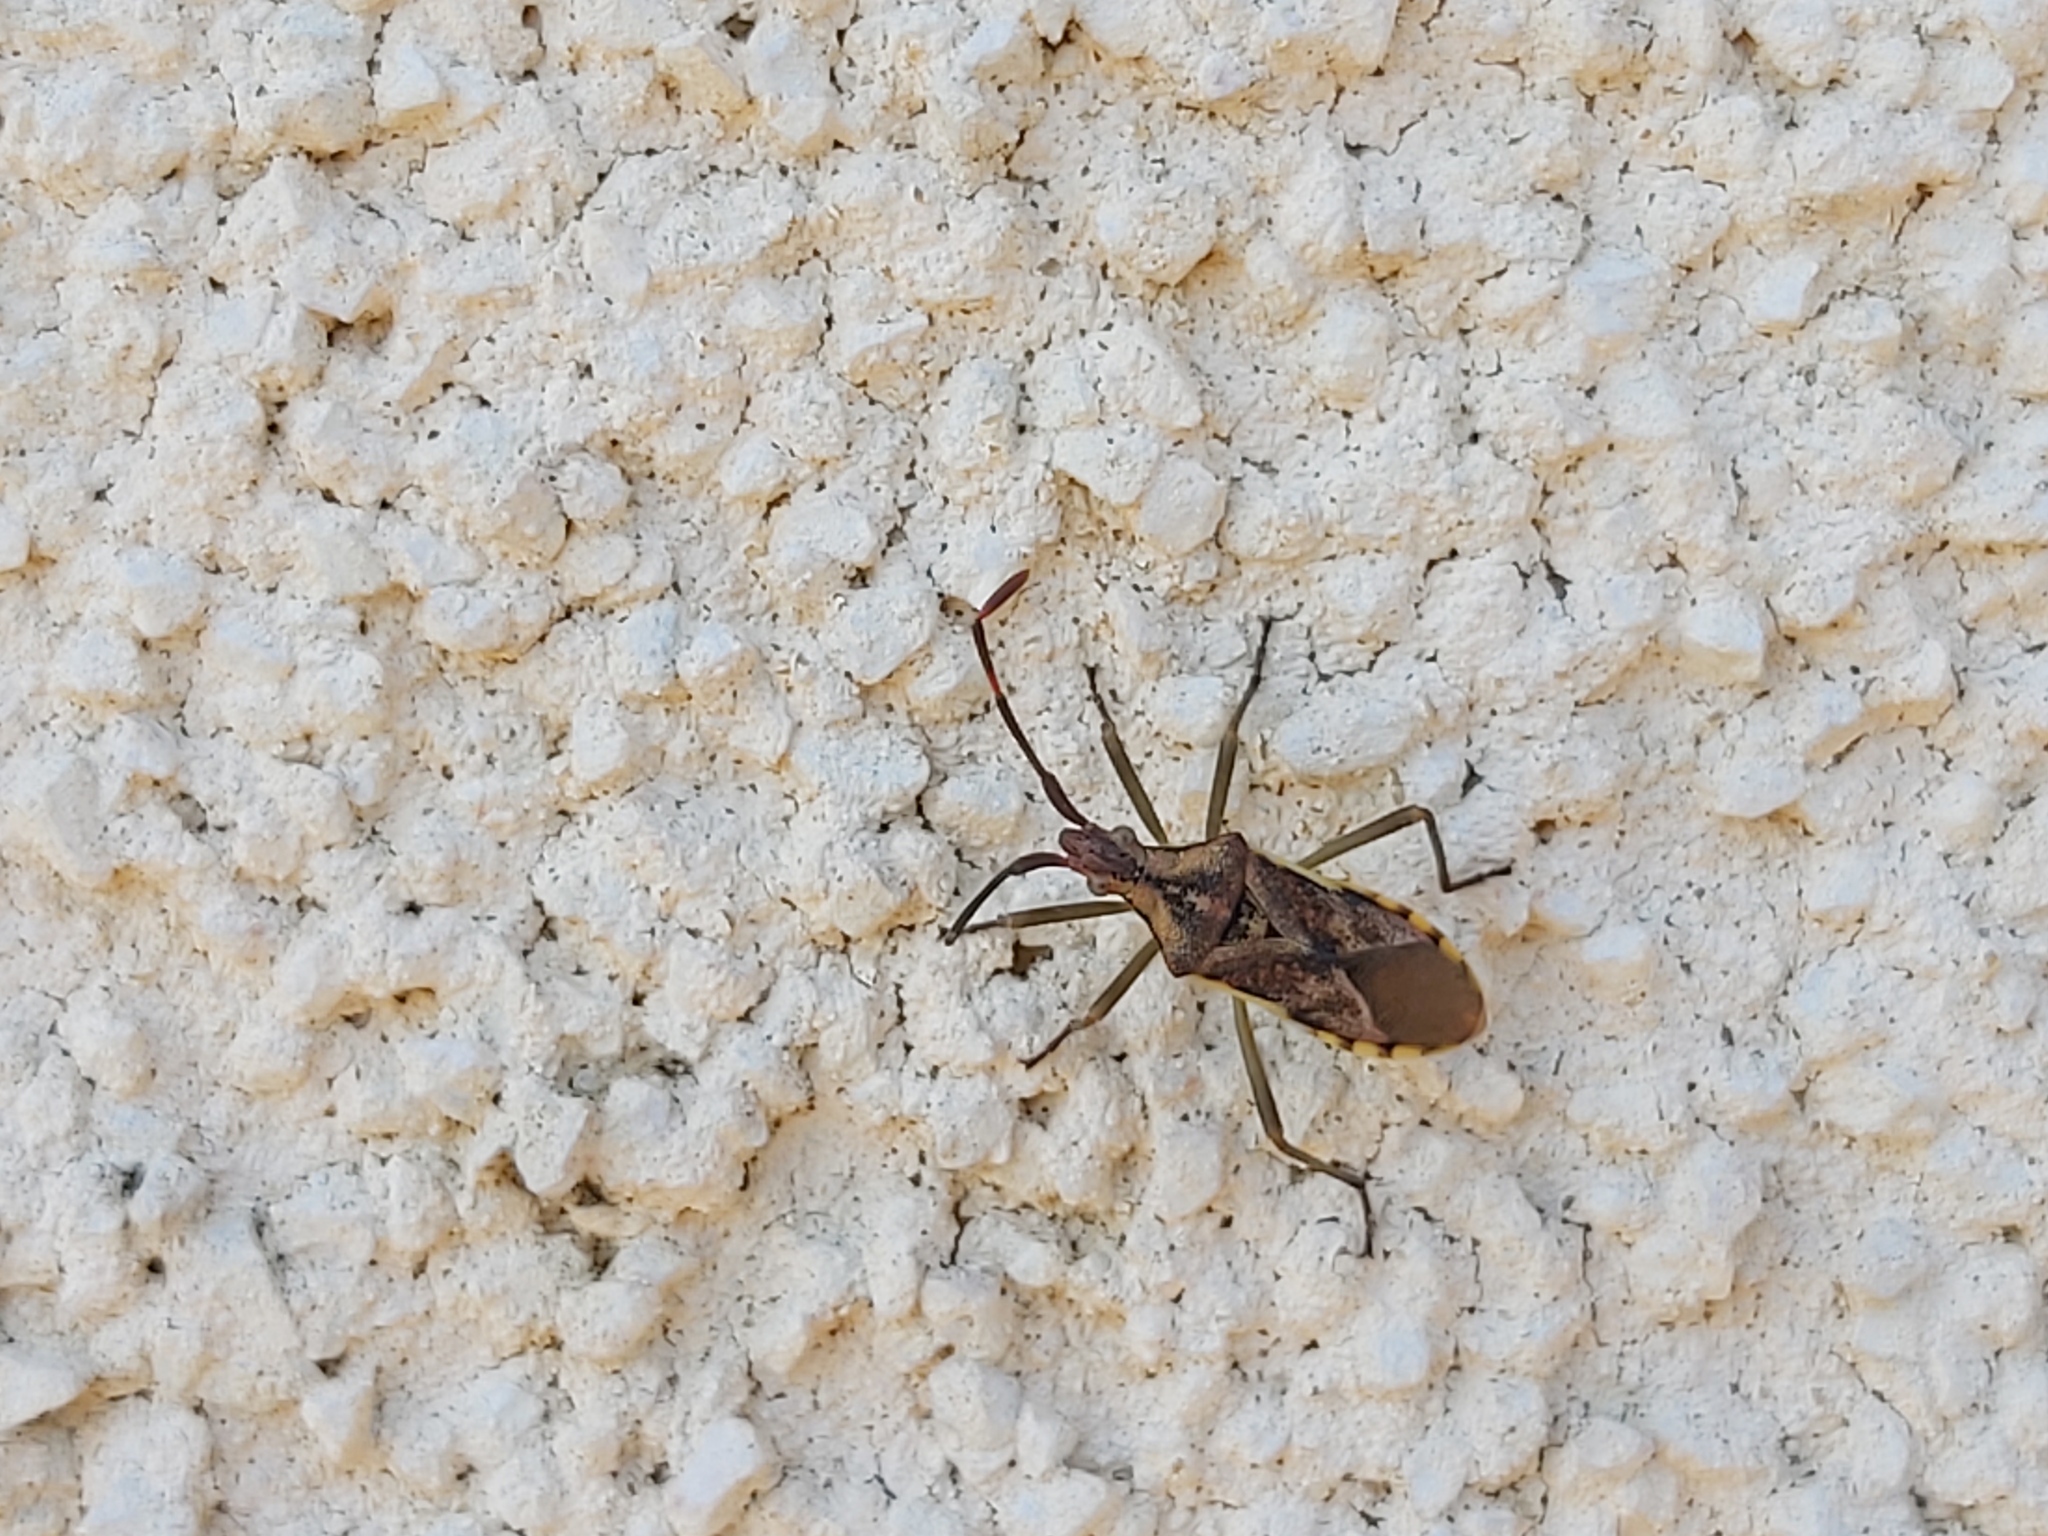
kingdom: Animalia
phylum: Arthropoda
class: Insecta
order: Hemiptera
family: Coreidae
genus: Gonocerus
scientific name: Gonocerus juniperi
